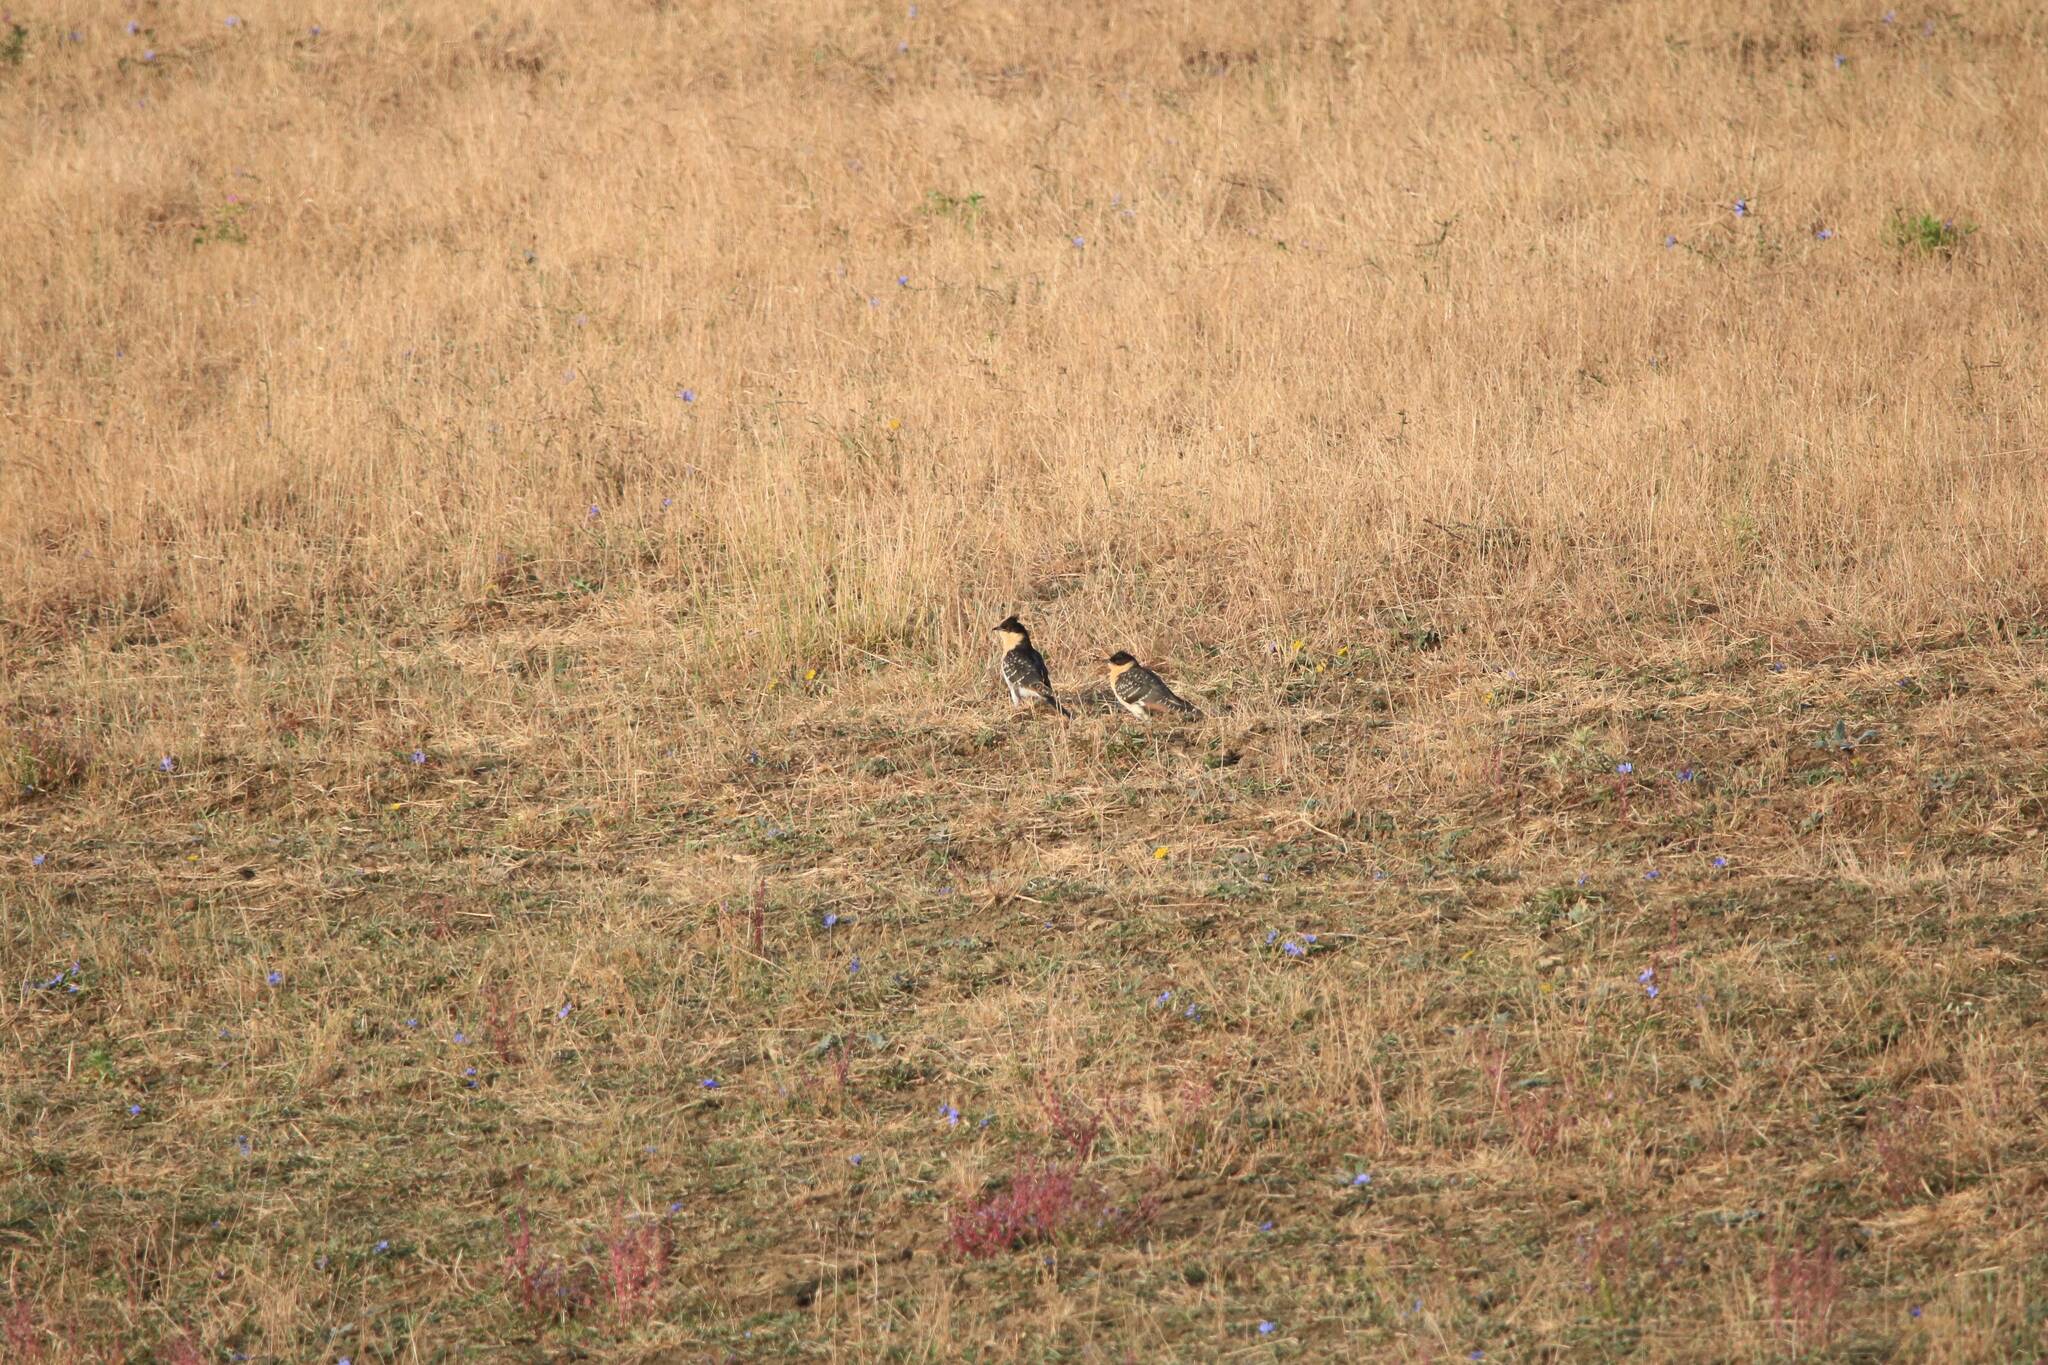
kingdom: Animalia
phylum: Chordata
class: Aves
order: Cuculiformes
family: Cuculidae
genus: Clamator
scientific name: Clamator glandarius
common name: Great spotted cuckoo
